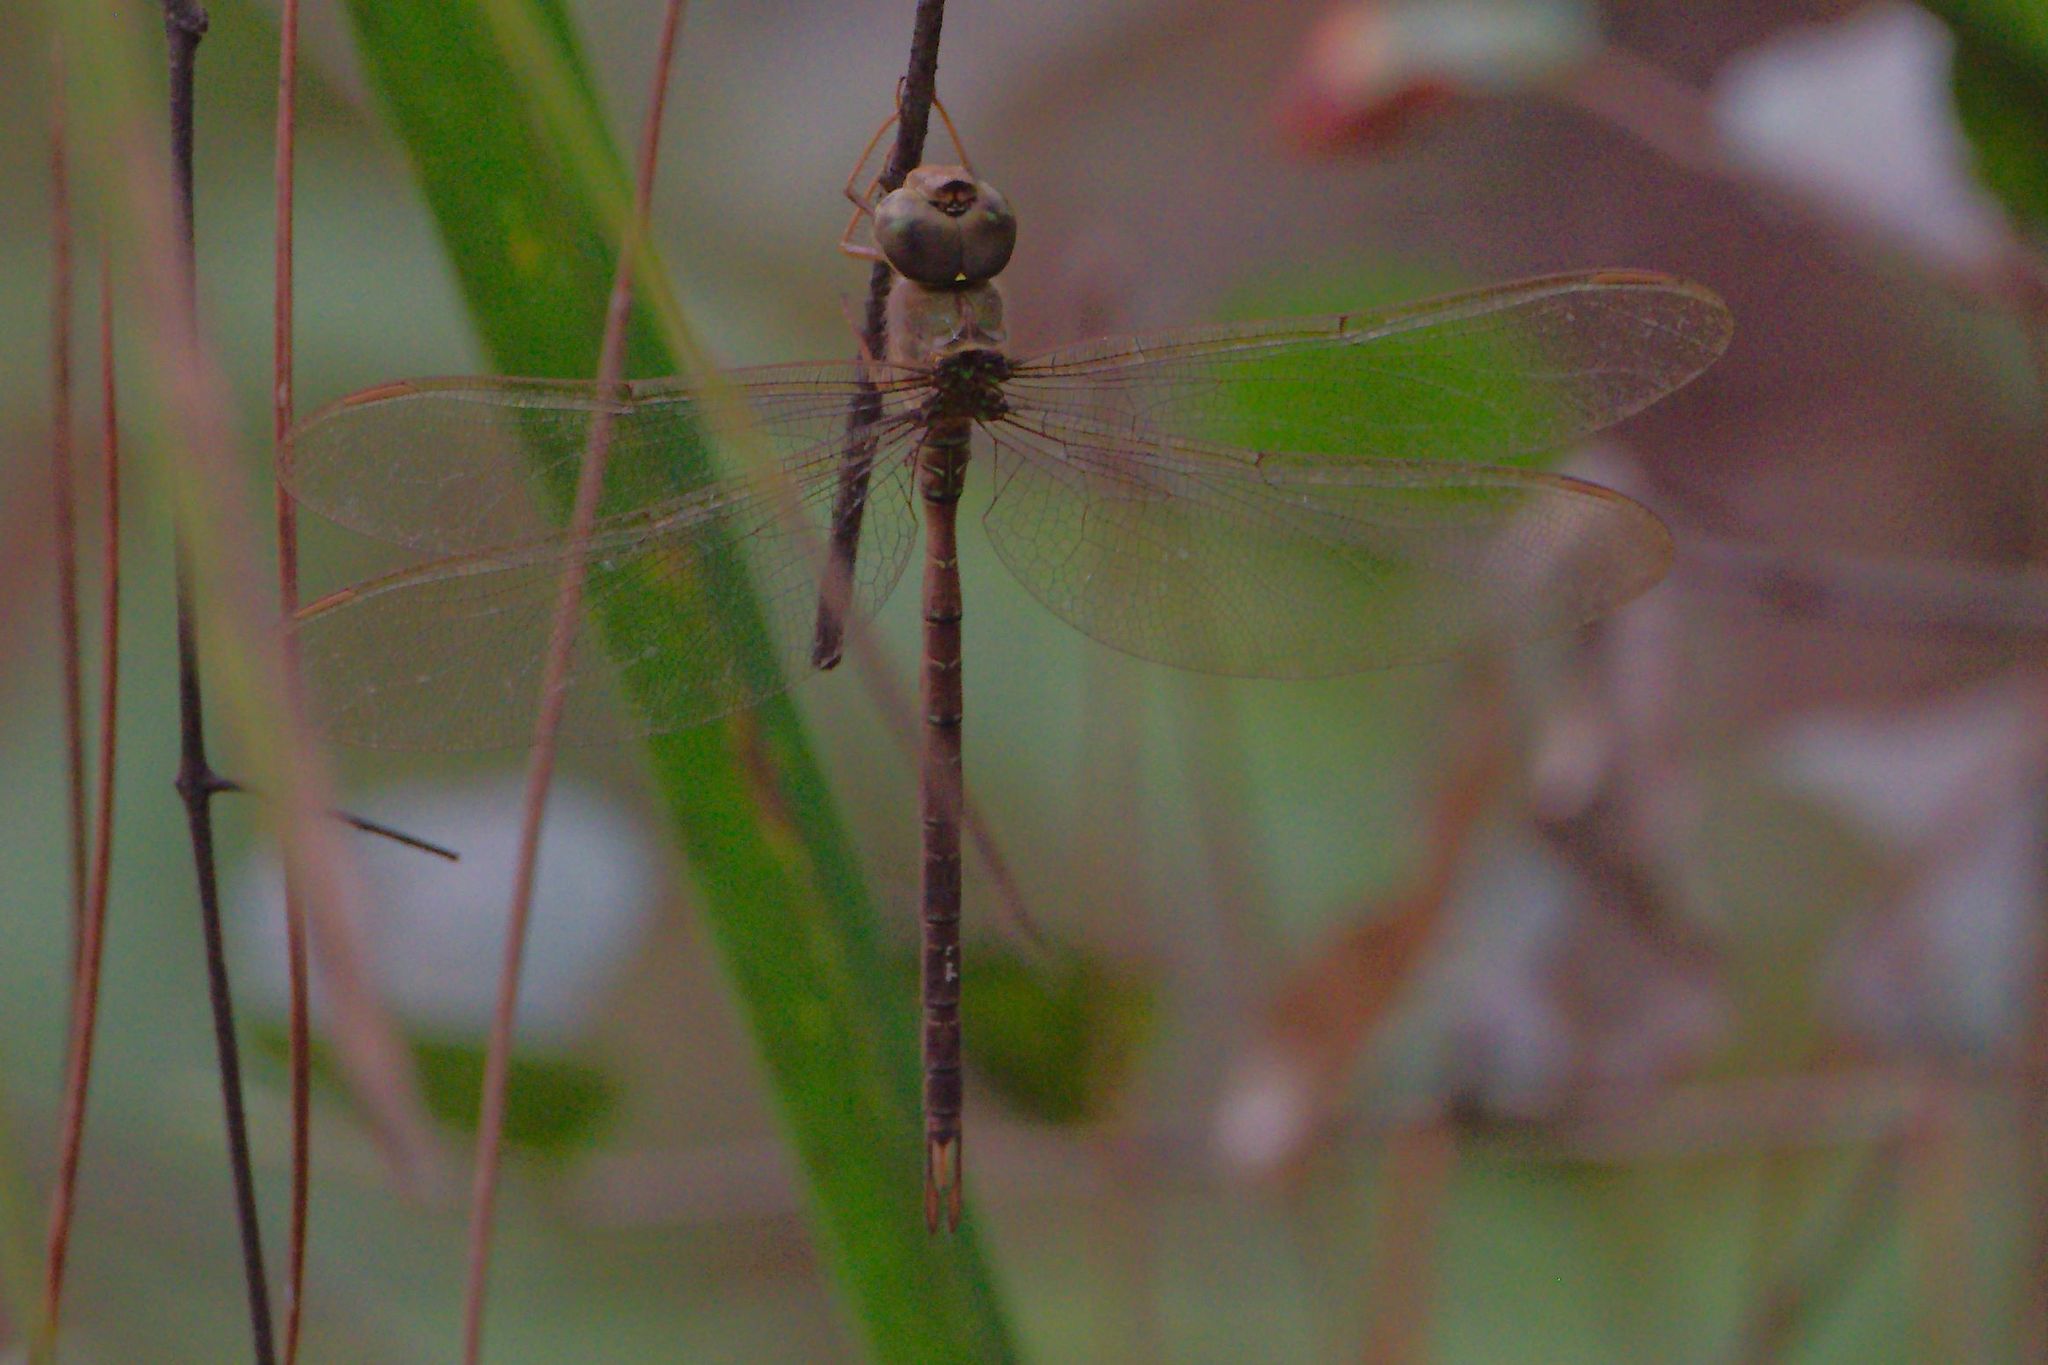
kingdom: Animalia
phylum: Arthropoda
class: Insecta
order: Odonata
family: Aeshnidae
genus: Gynacantha
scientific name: Gynacantha nervosa
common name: Twilight darner
